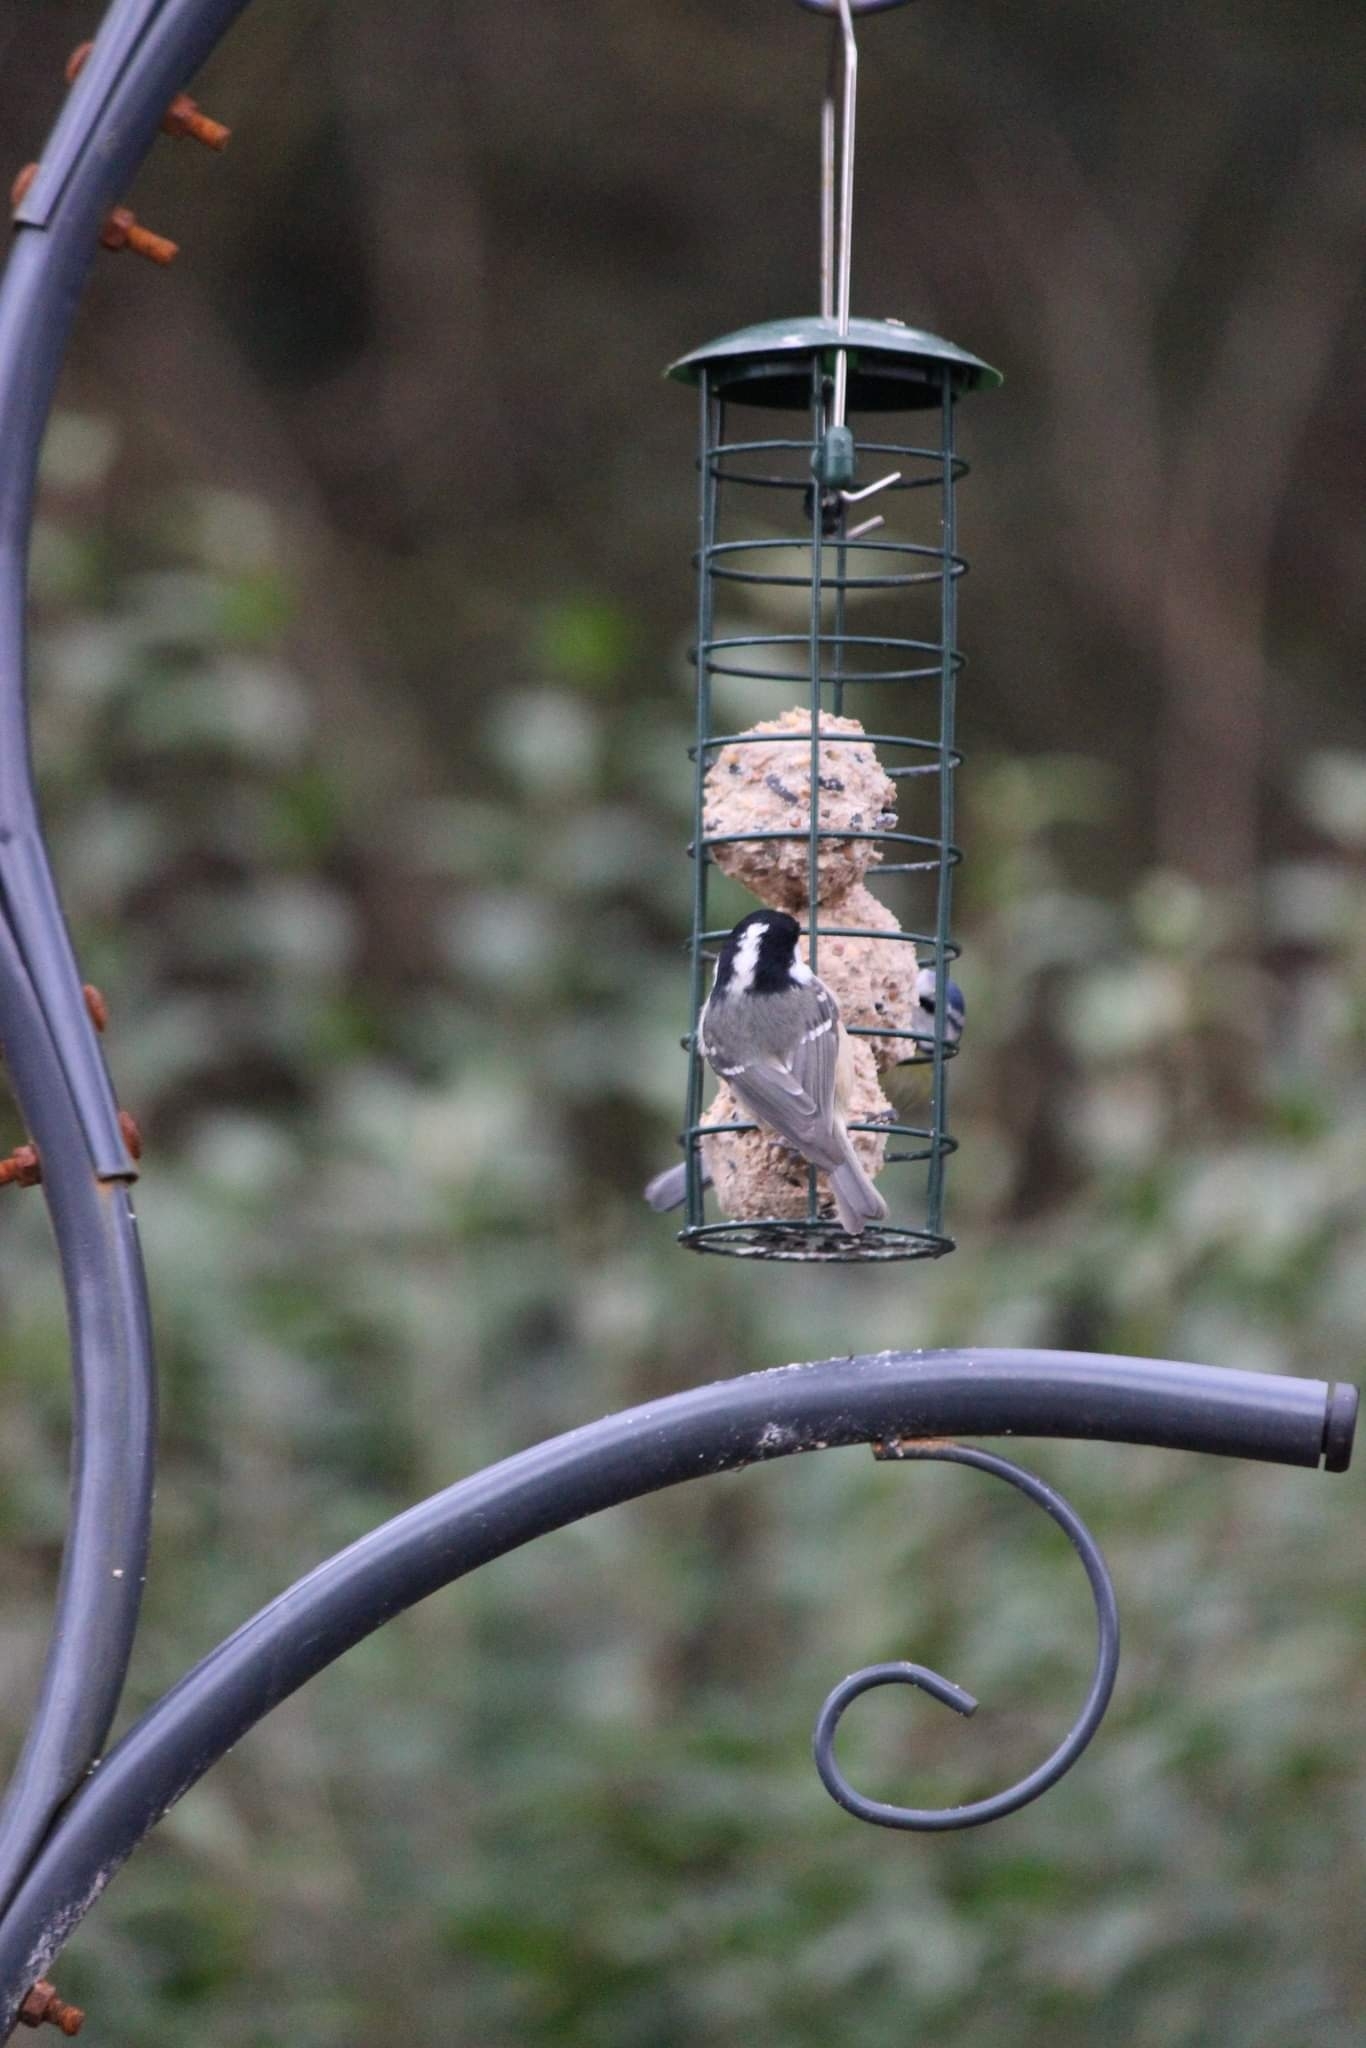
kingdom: Animalia
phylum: Chordata
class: Aves
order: Passeriformes
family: Paridae
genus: Periparus
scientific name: Periparus ater
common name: Coal tit
